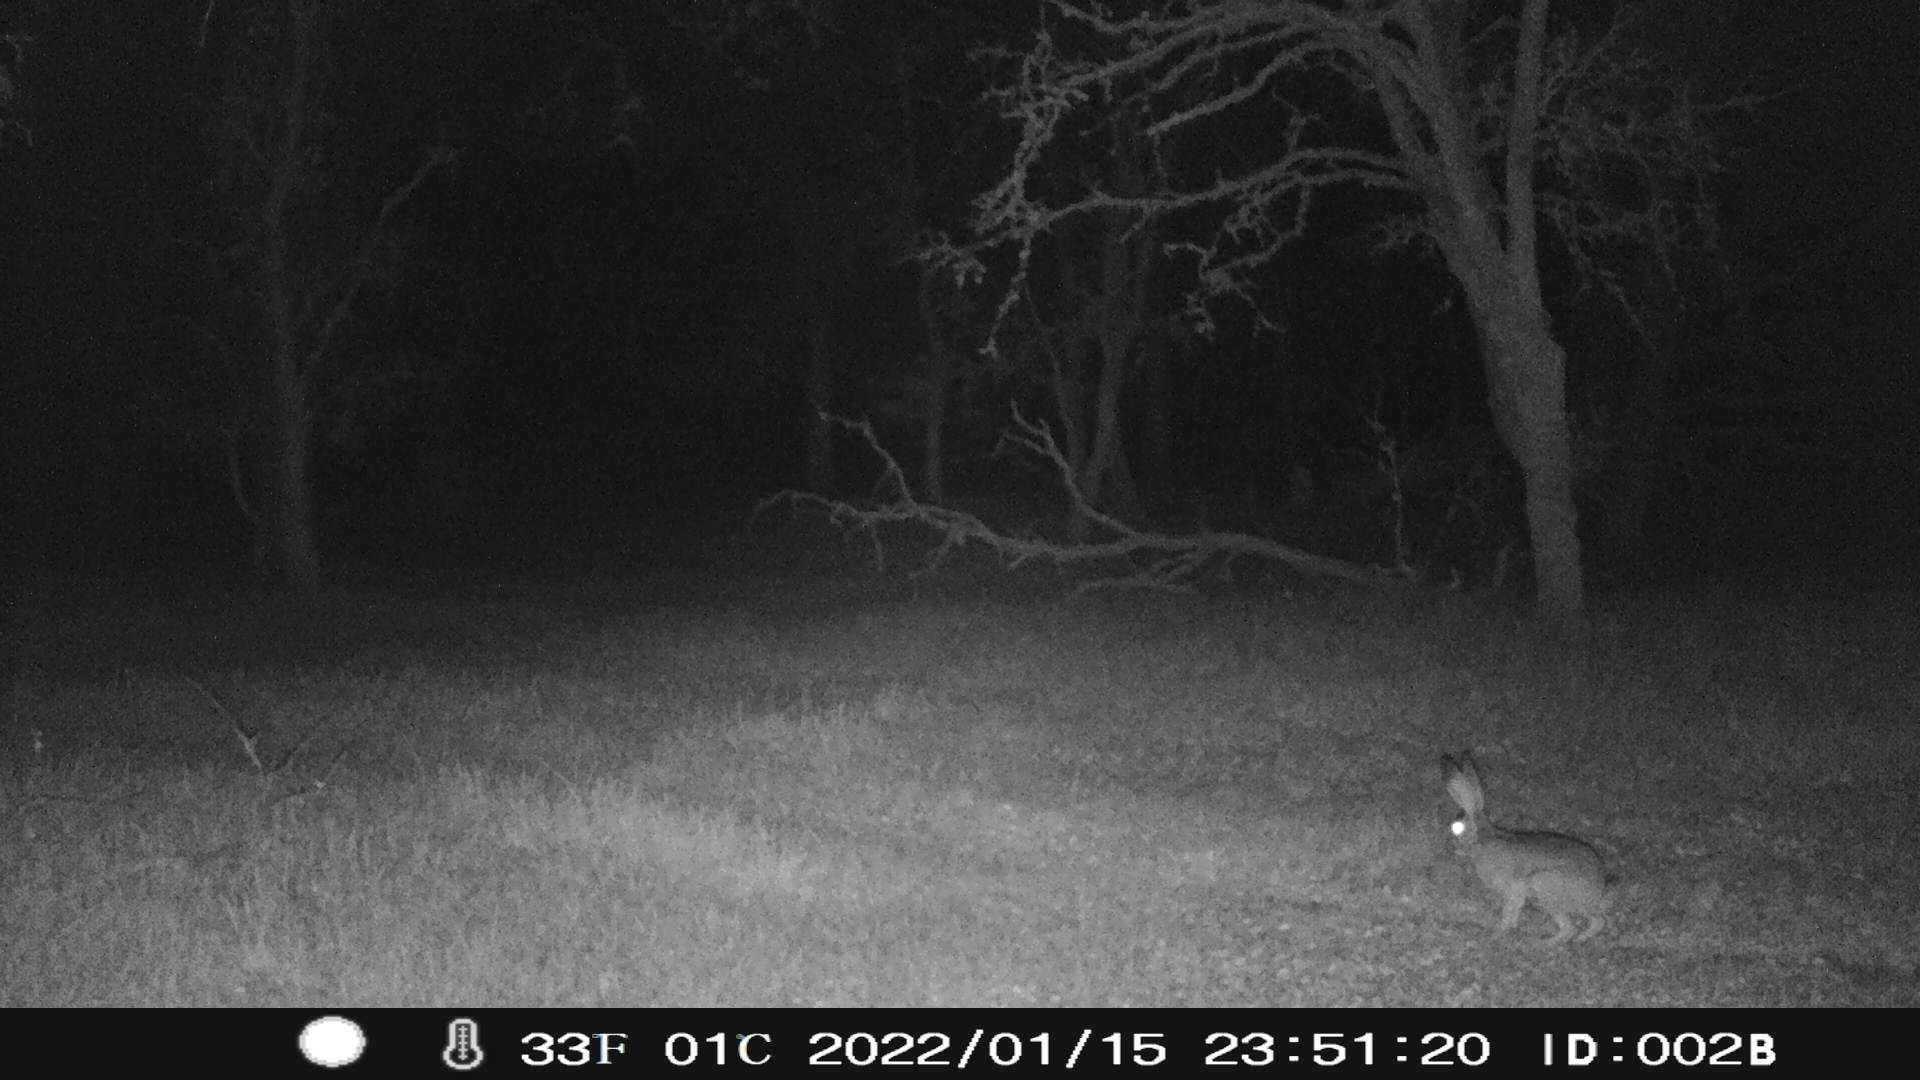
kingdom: Animalia
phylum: Chordata
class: Mammalia
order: Lagomorpha
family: Leporidae
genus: Lepus
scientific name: Lepus californicus
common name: Black-tailed jackrabbit
